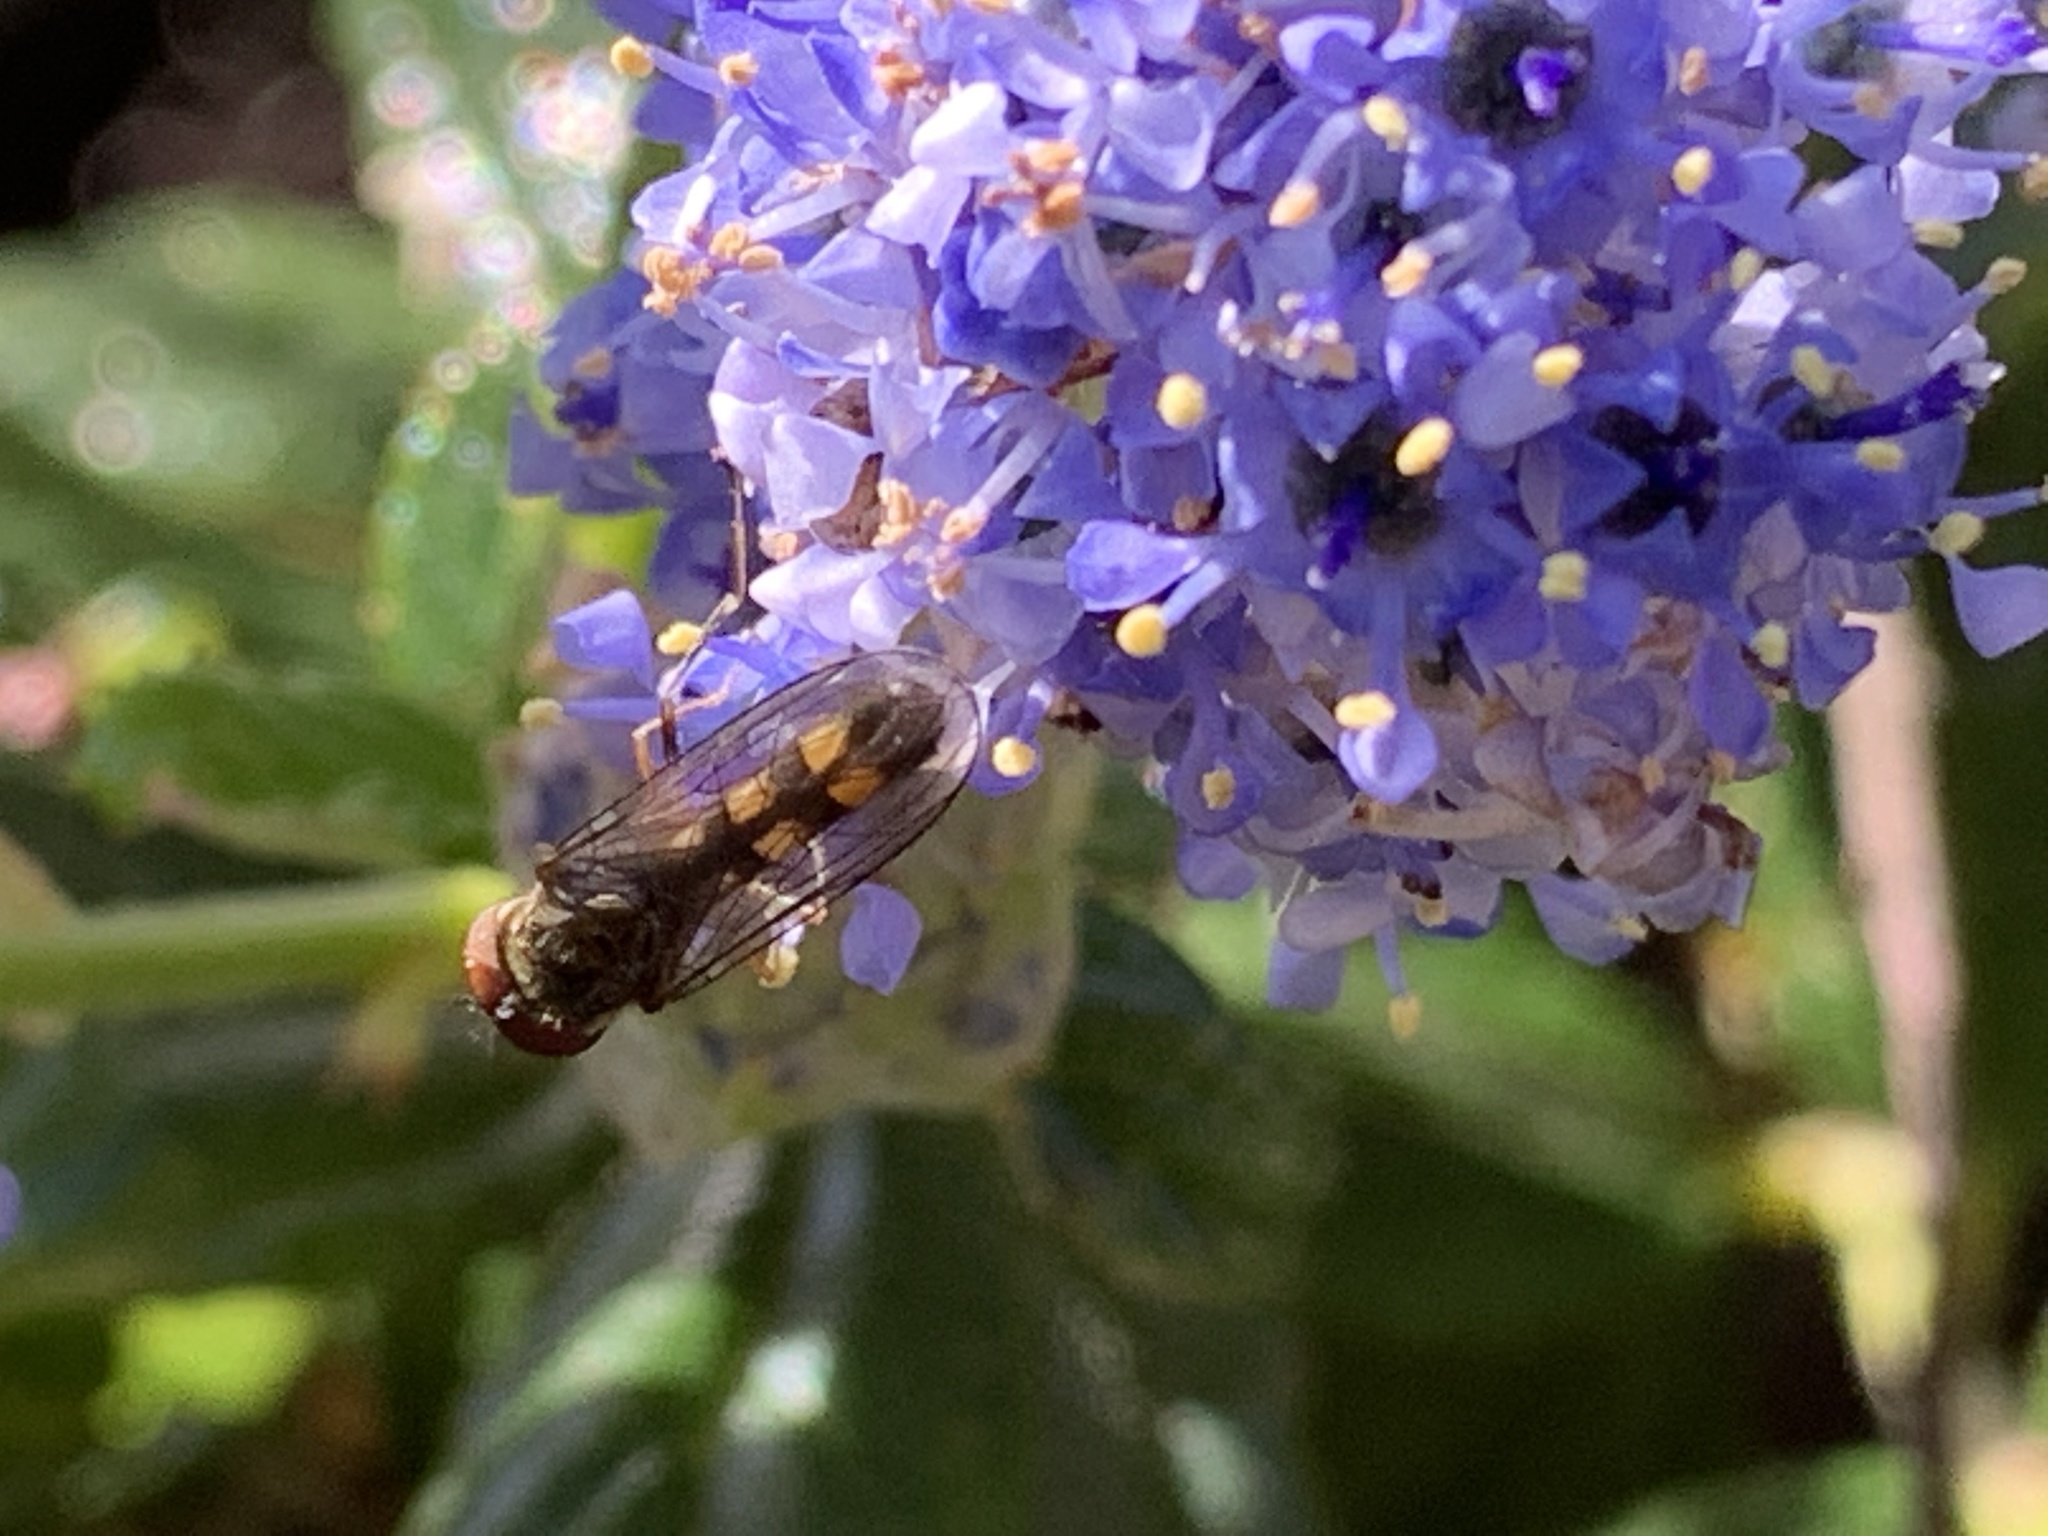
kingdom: Animalia
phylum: Arthropoda
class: Insecta
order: Diptera
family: Syrphidae
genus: Melanostoma
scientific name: Melanostoma mellina
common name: Hover fly
